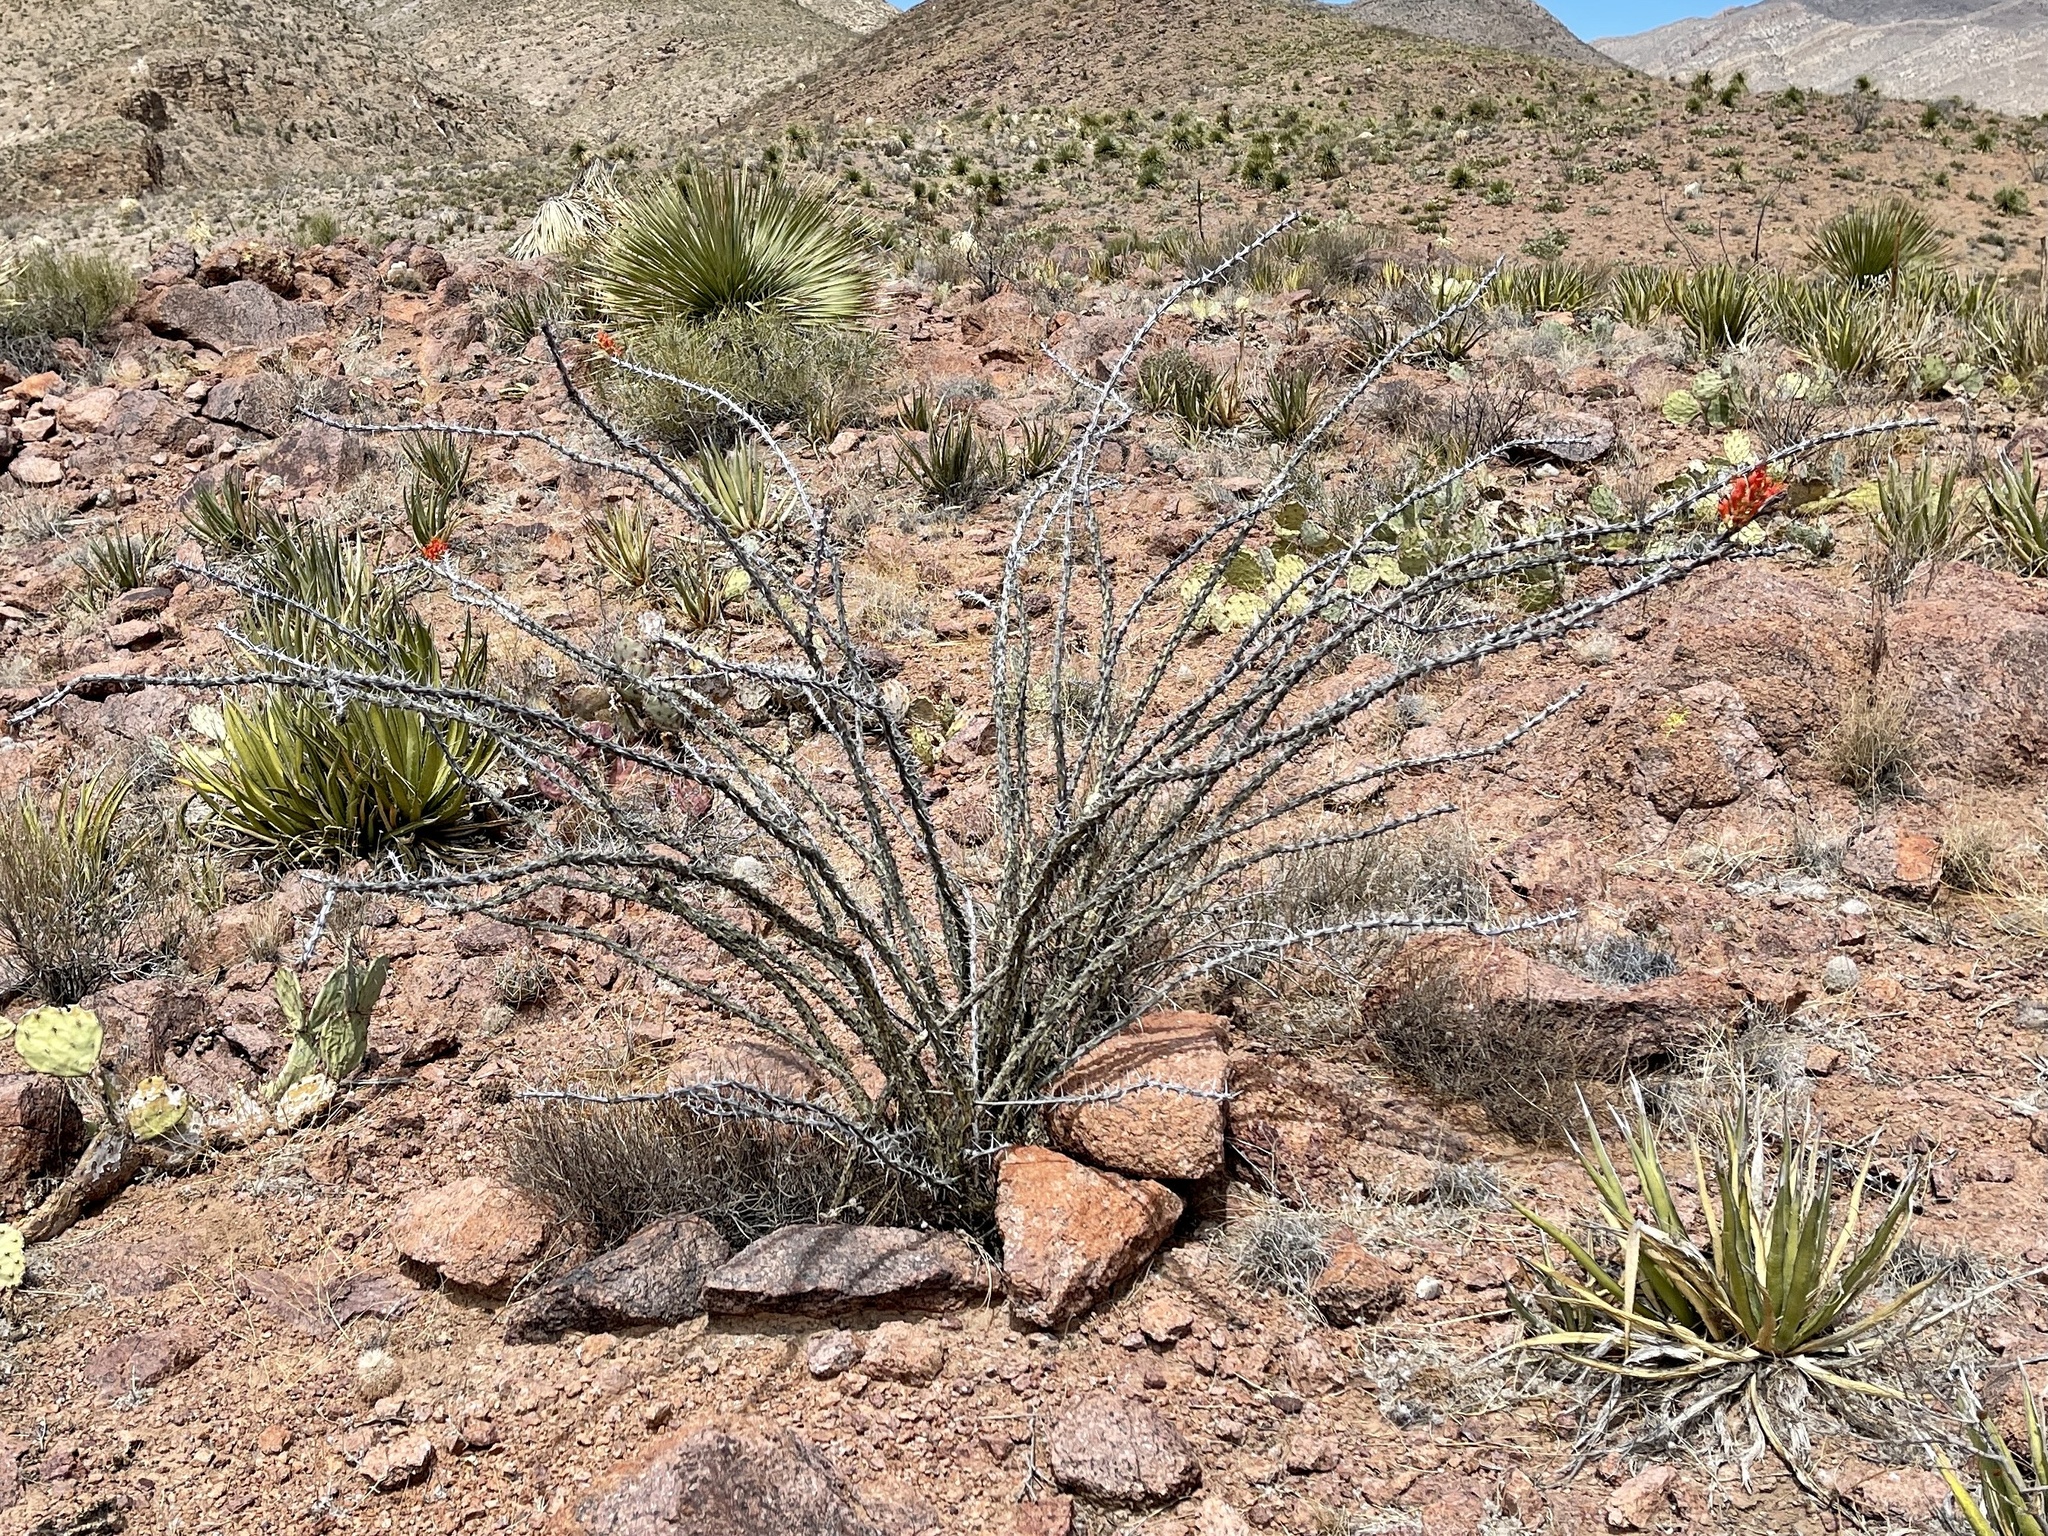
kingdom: Plantae
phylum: Tracheophyta
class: Magnoliopsida
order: Ericales
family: Fouquieriaceae
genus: Fouquieria
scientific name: Fouquieria splendens
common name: Vine-cactus
